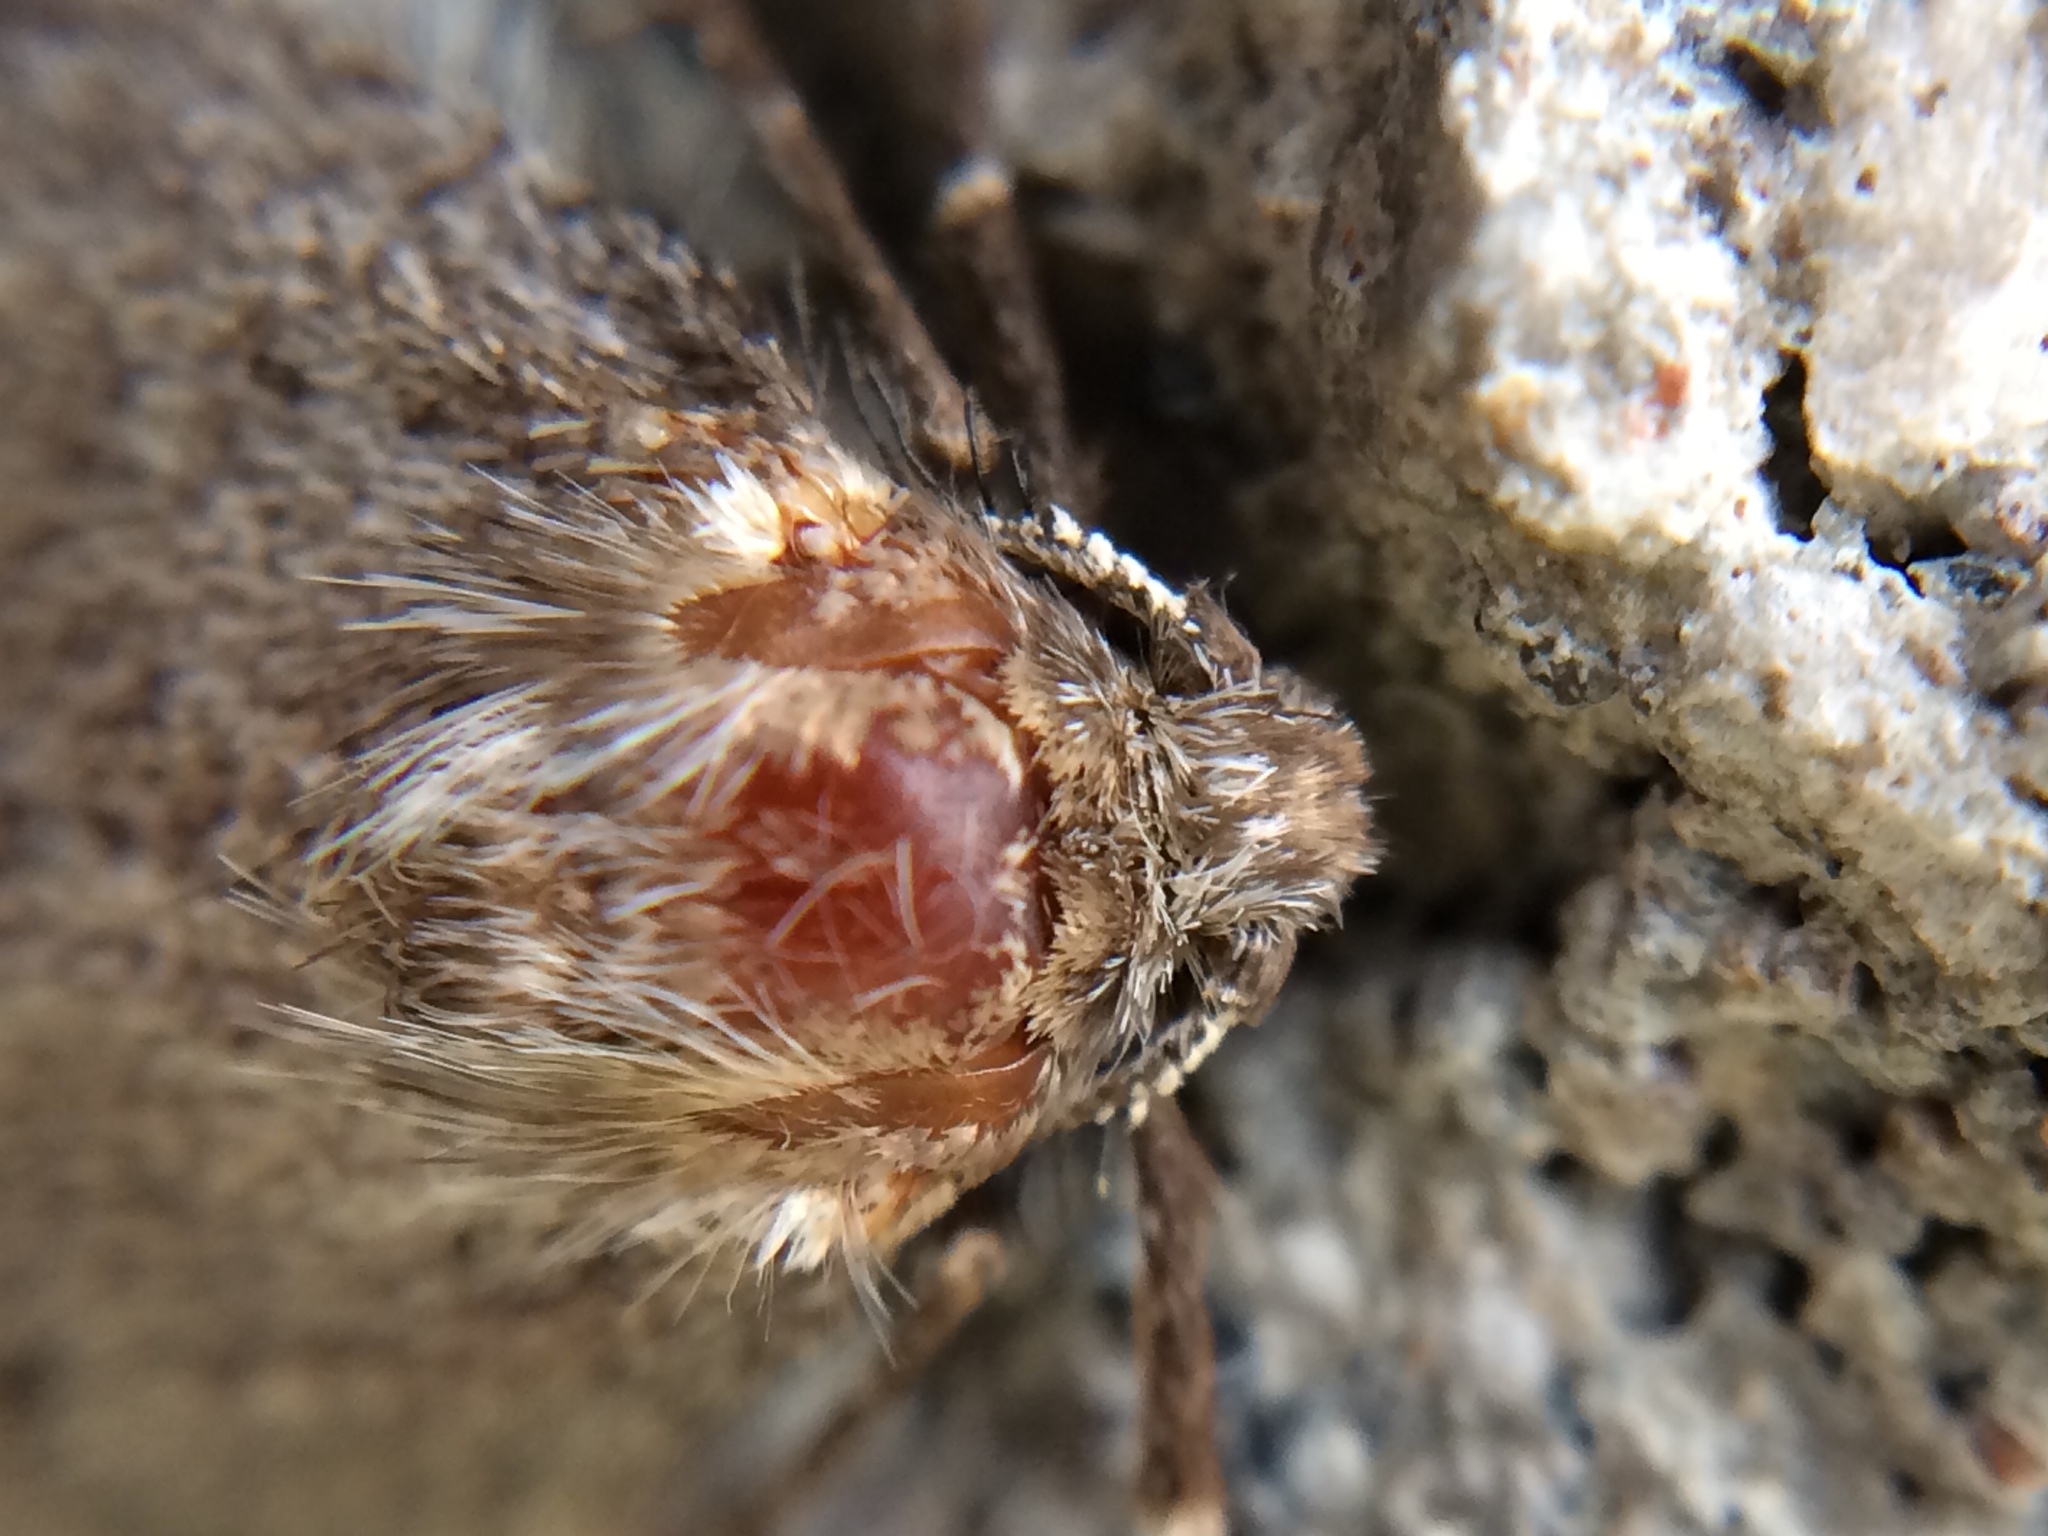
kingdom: Animalia
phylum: Arthropoda
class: Insecta
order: Lepidoptera
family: Geometridae
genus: Phigalia
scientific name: Phigalia plumogeraria
